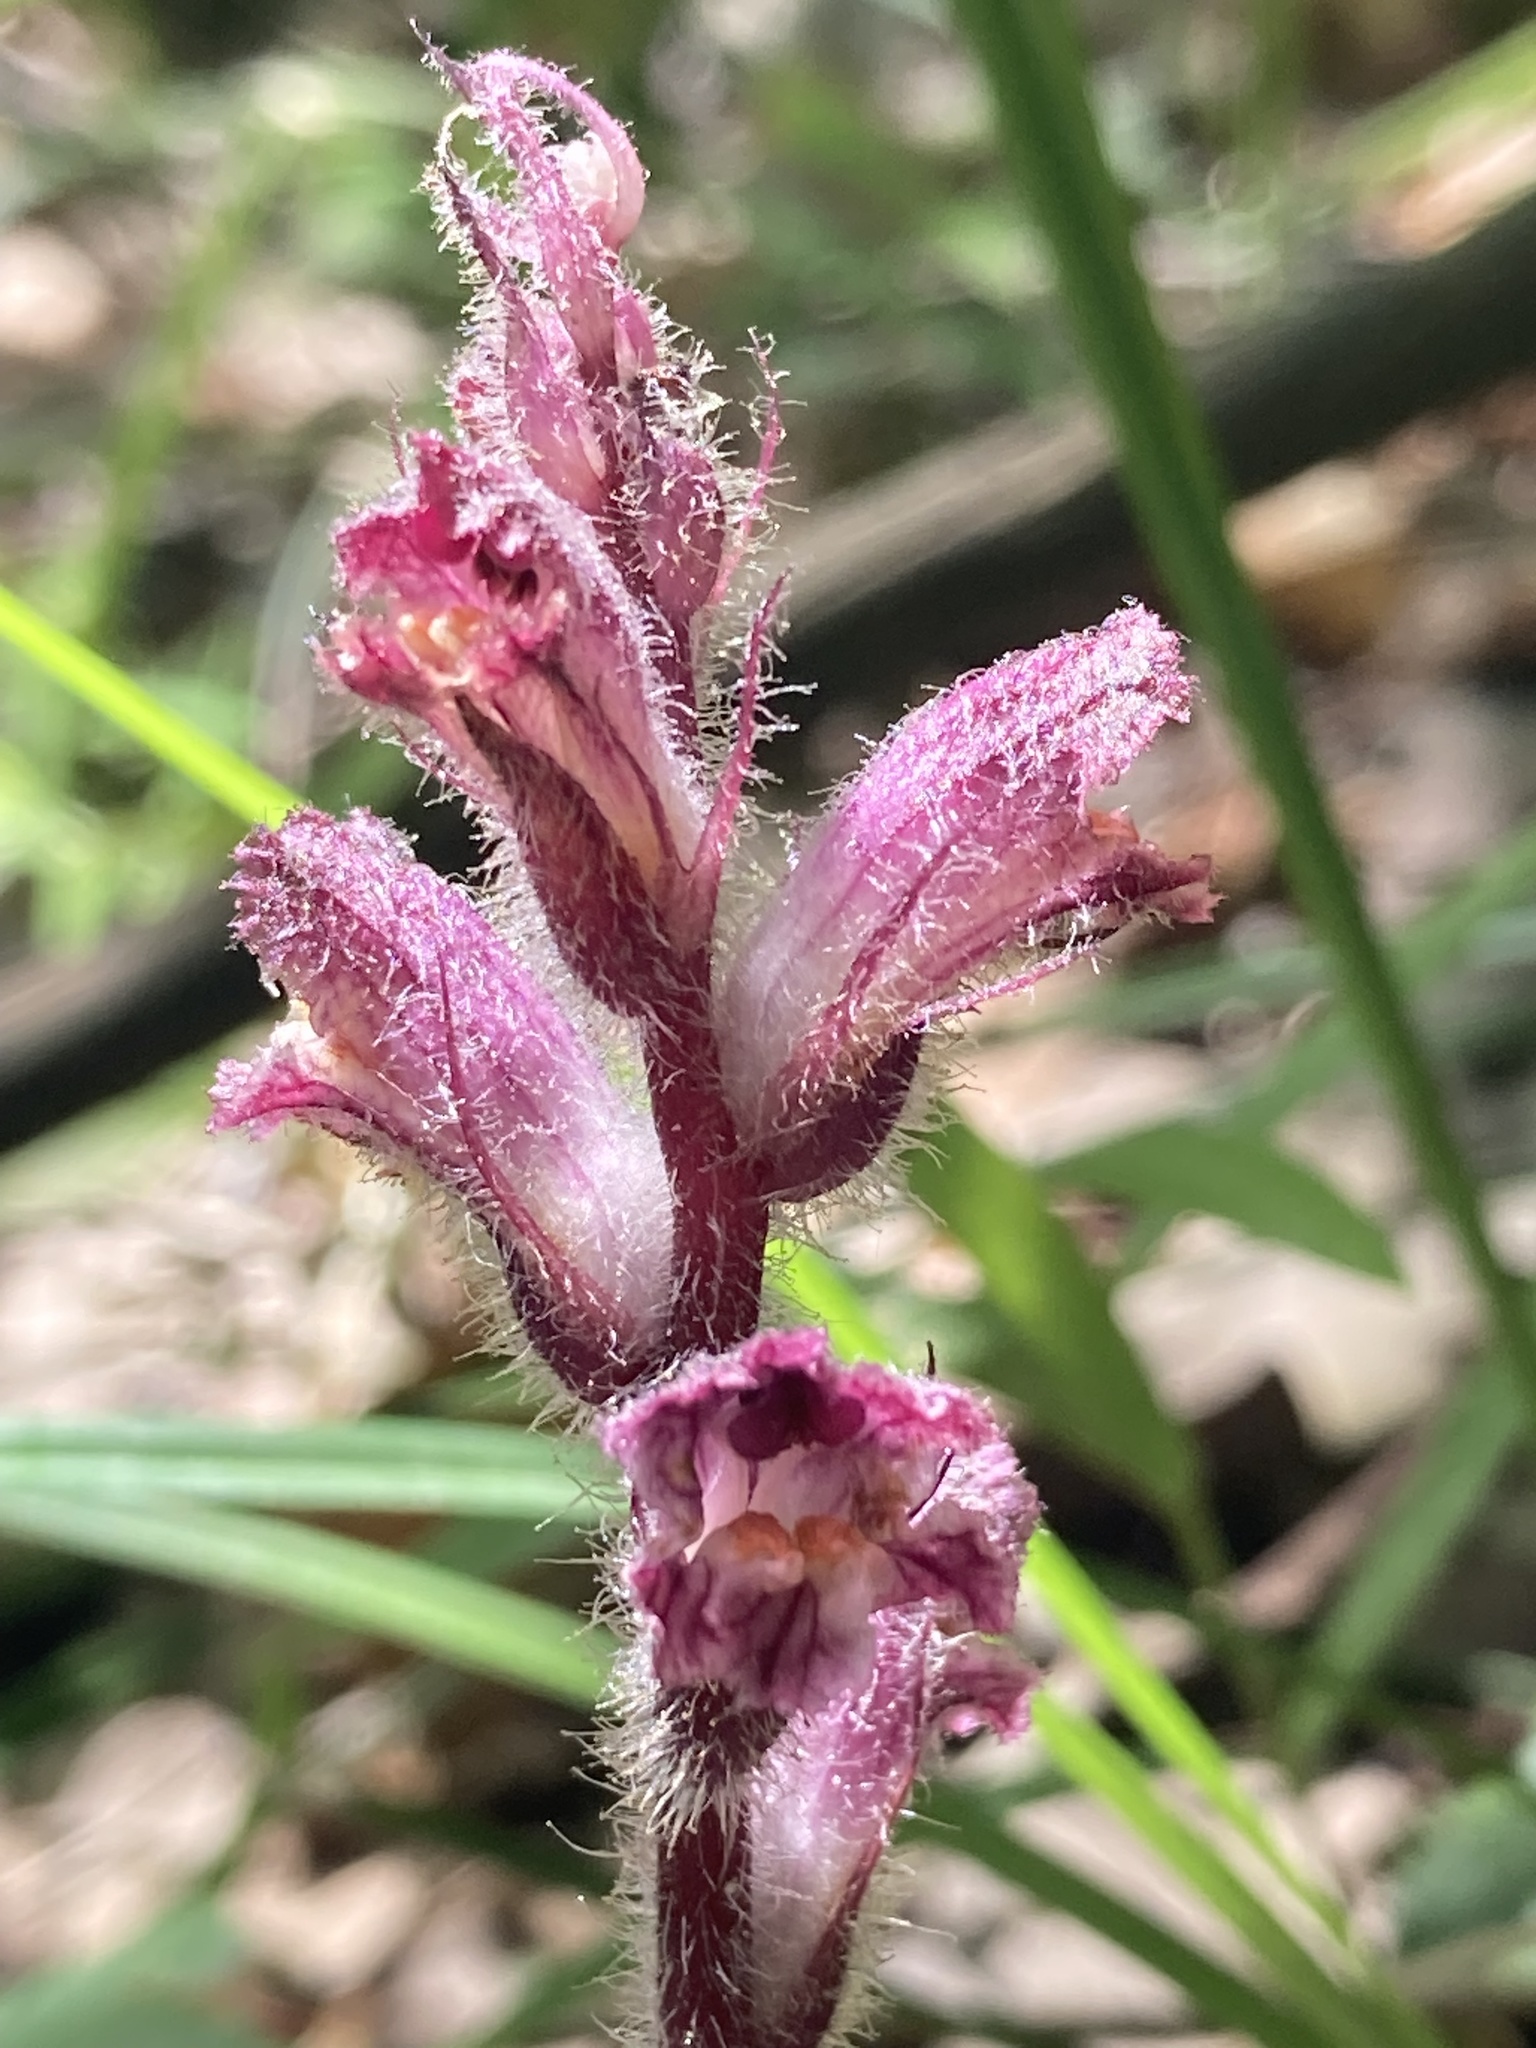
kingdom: Plantae
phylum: Tracheophyta
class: Magnoliopsida
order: Lamiales
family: Orobanchaceae
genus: Orobanche
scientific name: Orobanche pubescens
